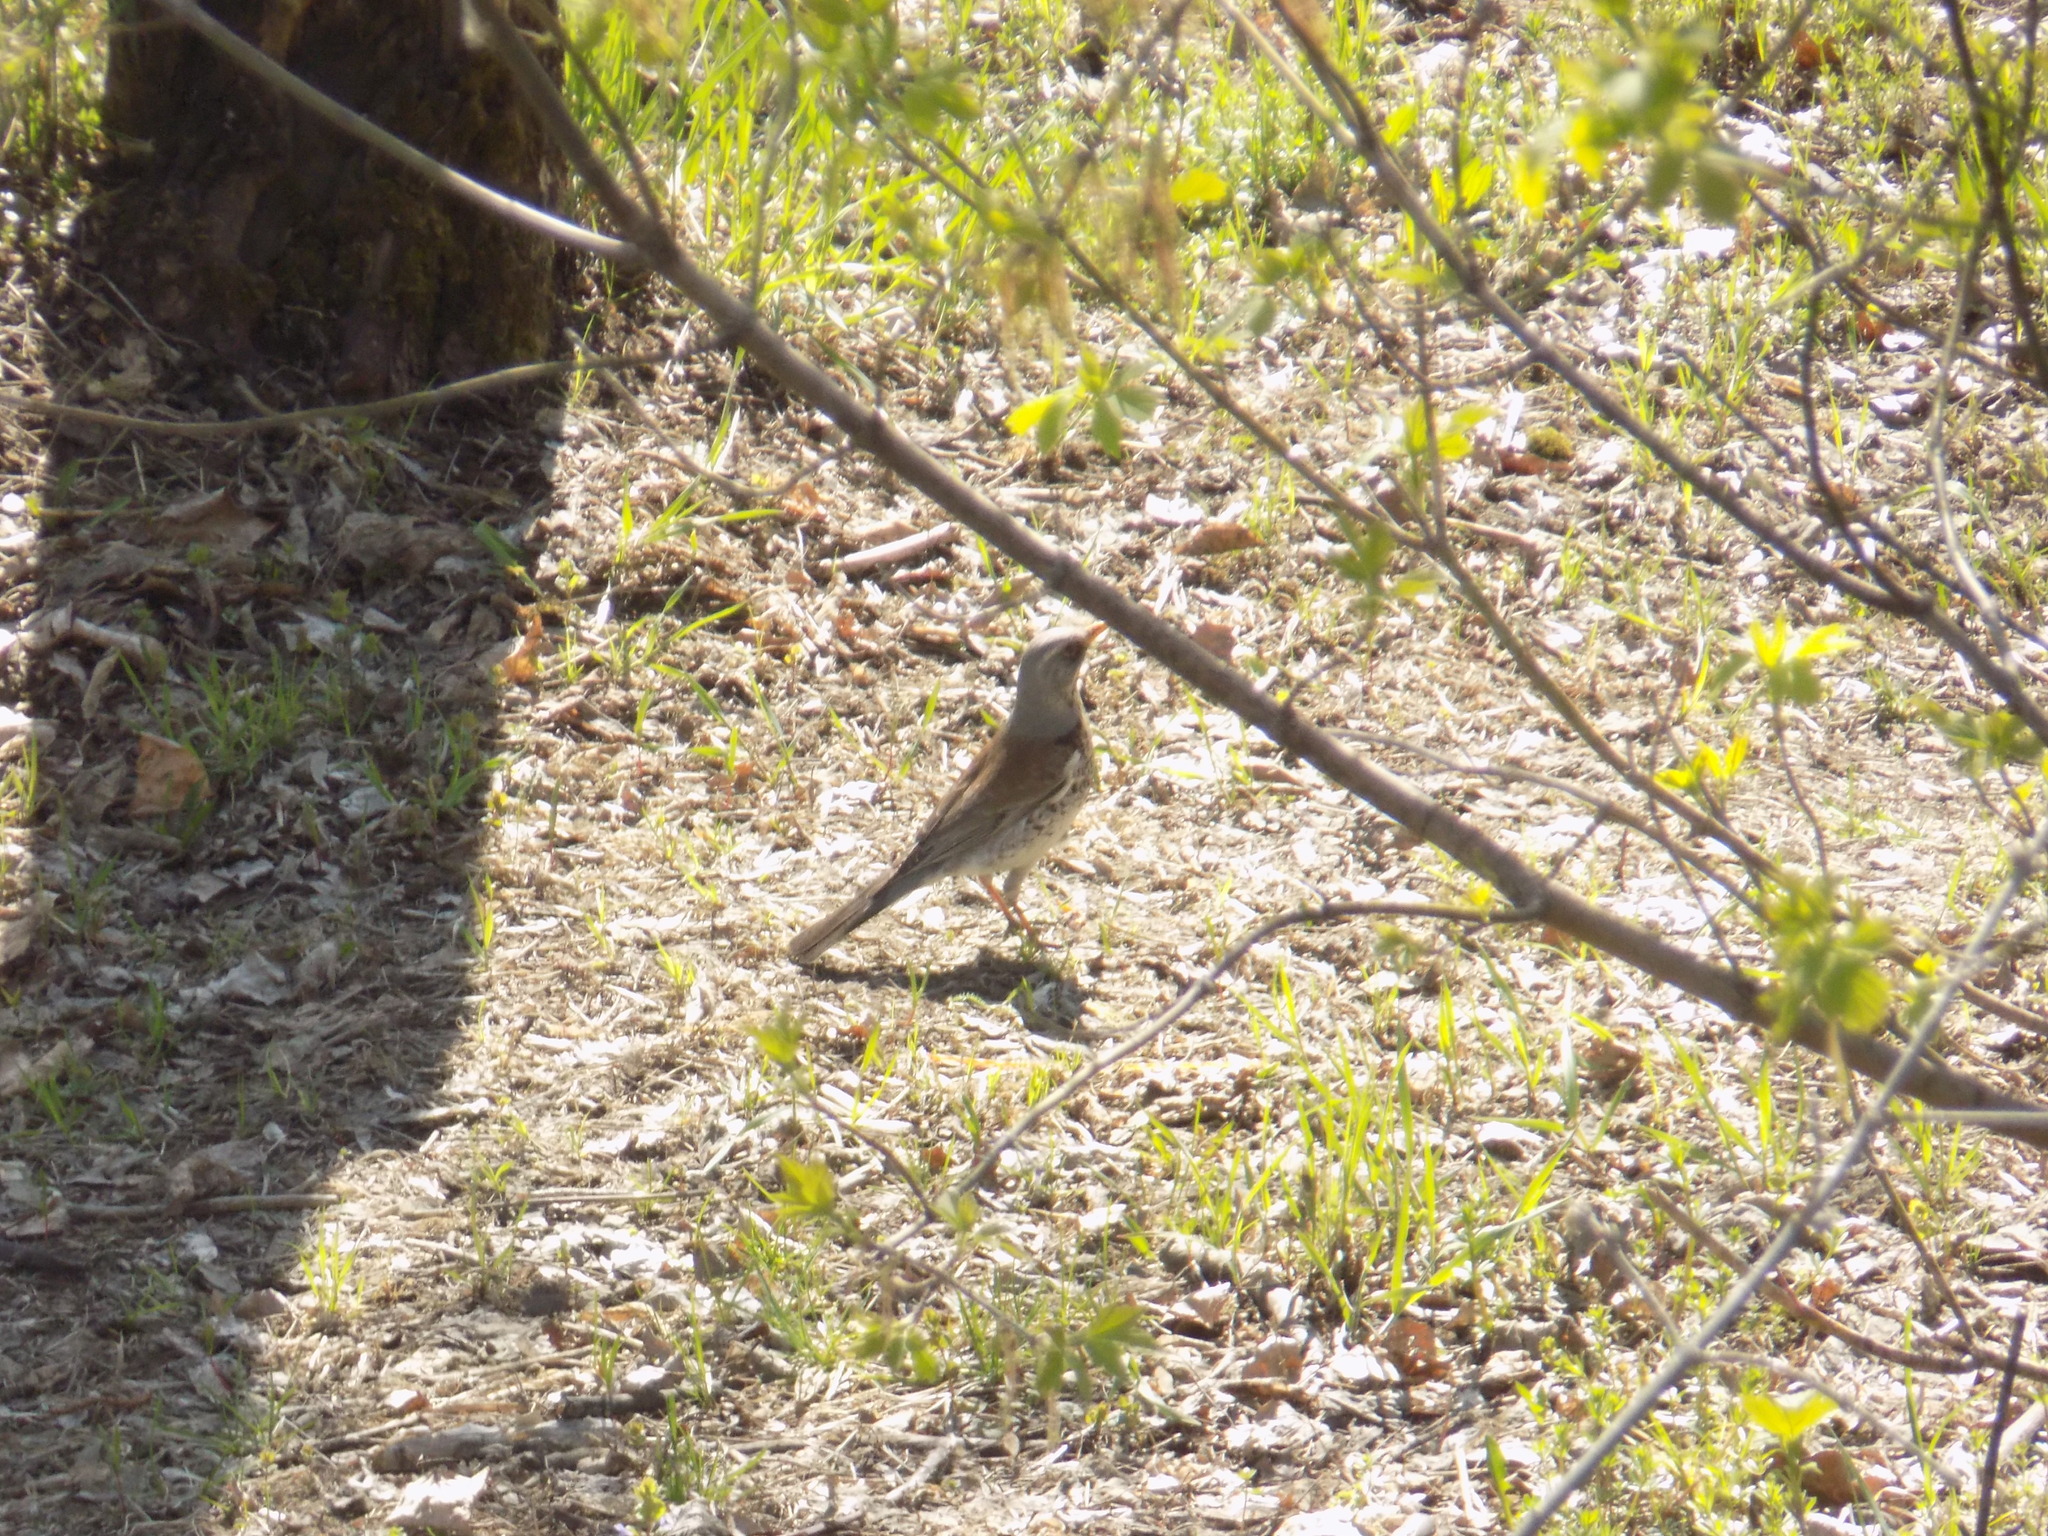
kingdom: Animalia
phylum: Chordata
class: Aves
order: Passeriformes
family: Turdidae
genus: Turdus
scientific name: Turdus pilaris
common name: Fieldfare
